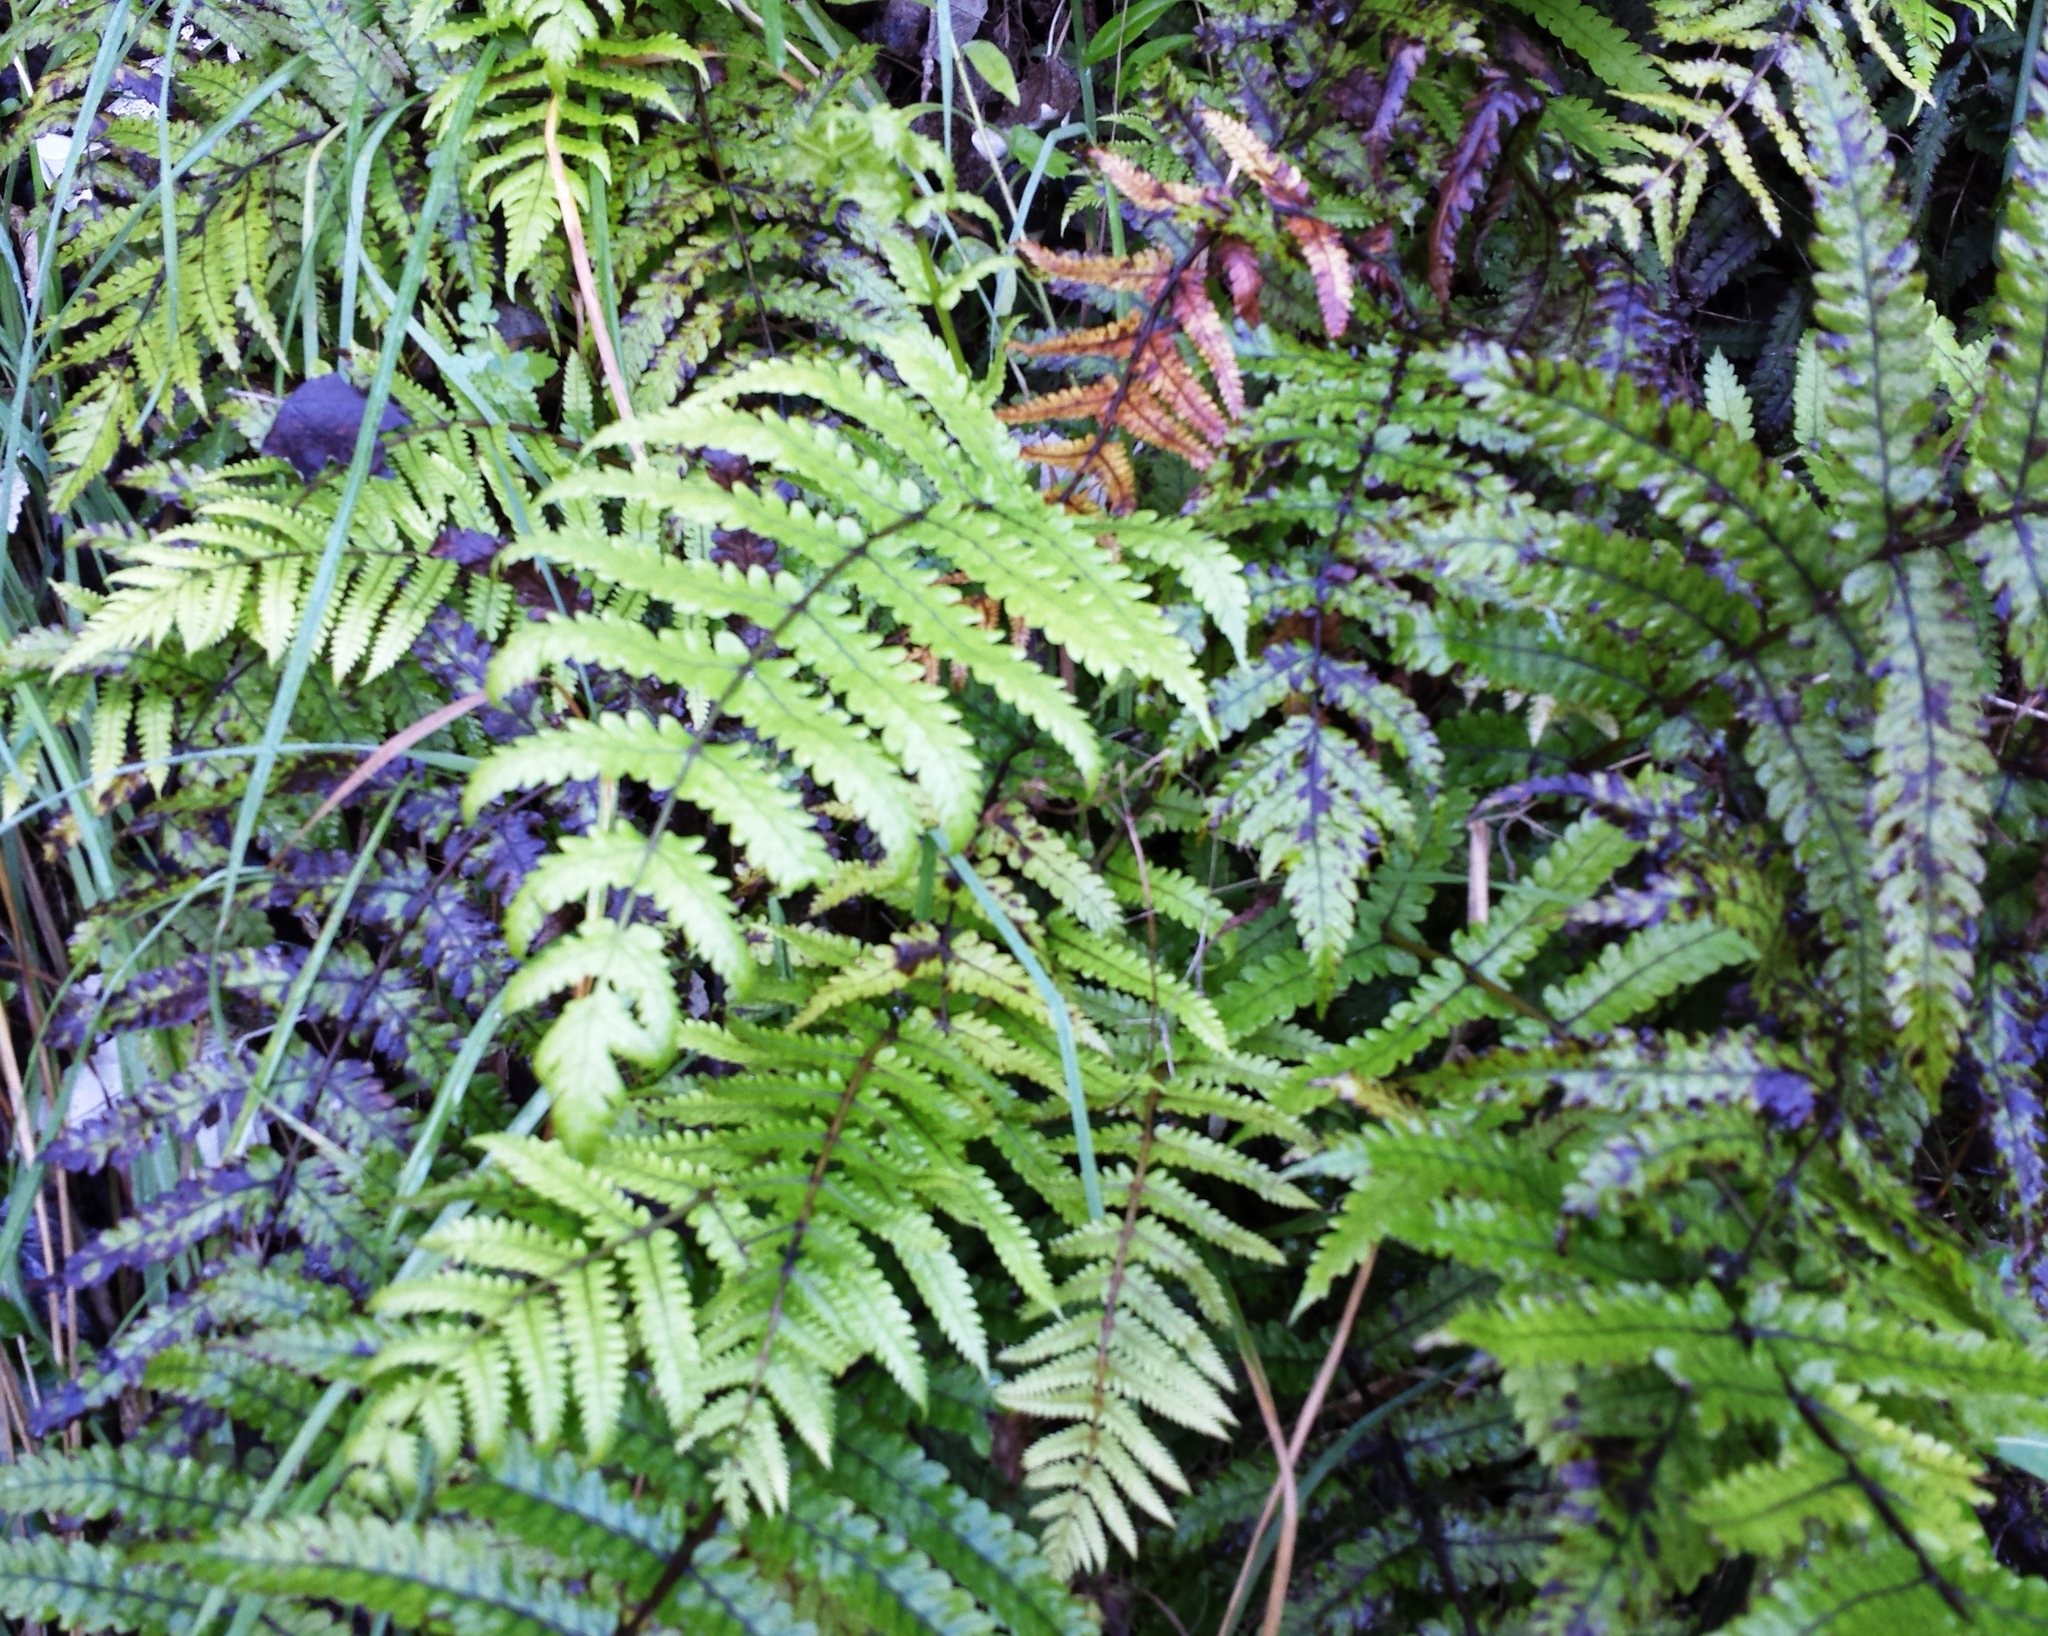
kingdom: Plantae
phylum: Tracheophyta
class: Polypodiopsida
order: Polypodiales
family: Thelypteridaceae
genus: Pakau
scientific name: Pakau pennigera
